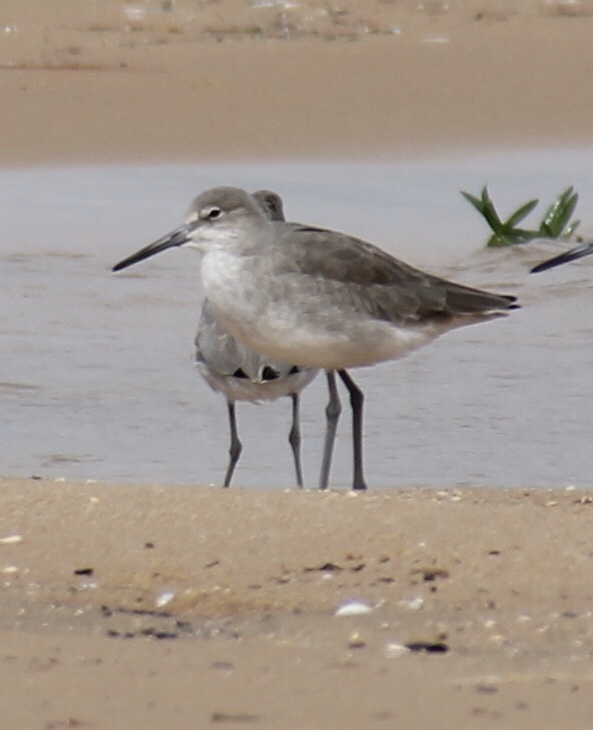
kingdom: Animalia
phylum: Chordata
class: Aves
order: Charadriiformes
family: Scolopacidae
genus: Tringa
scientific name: Tringa semipalmata
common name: Willet
